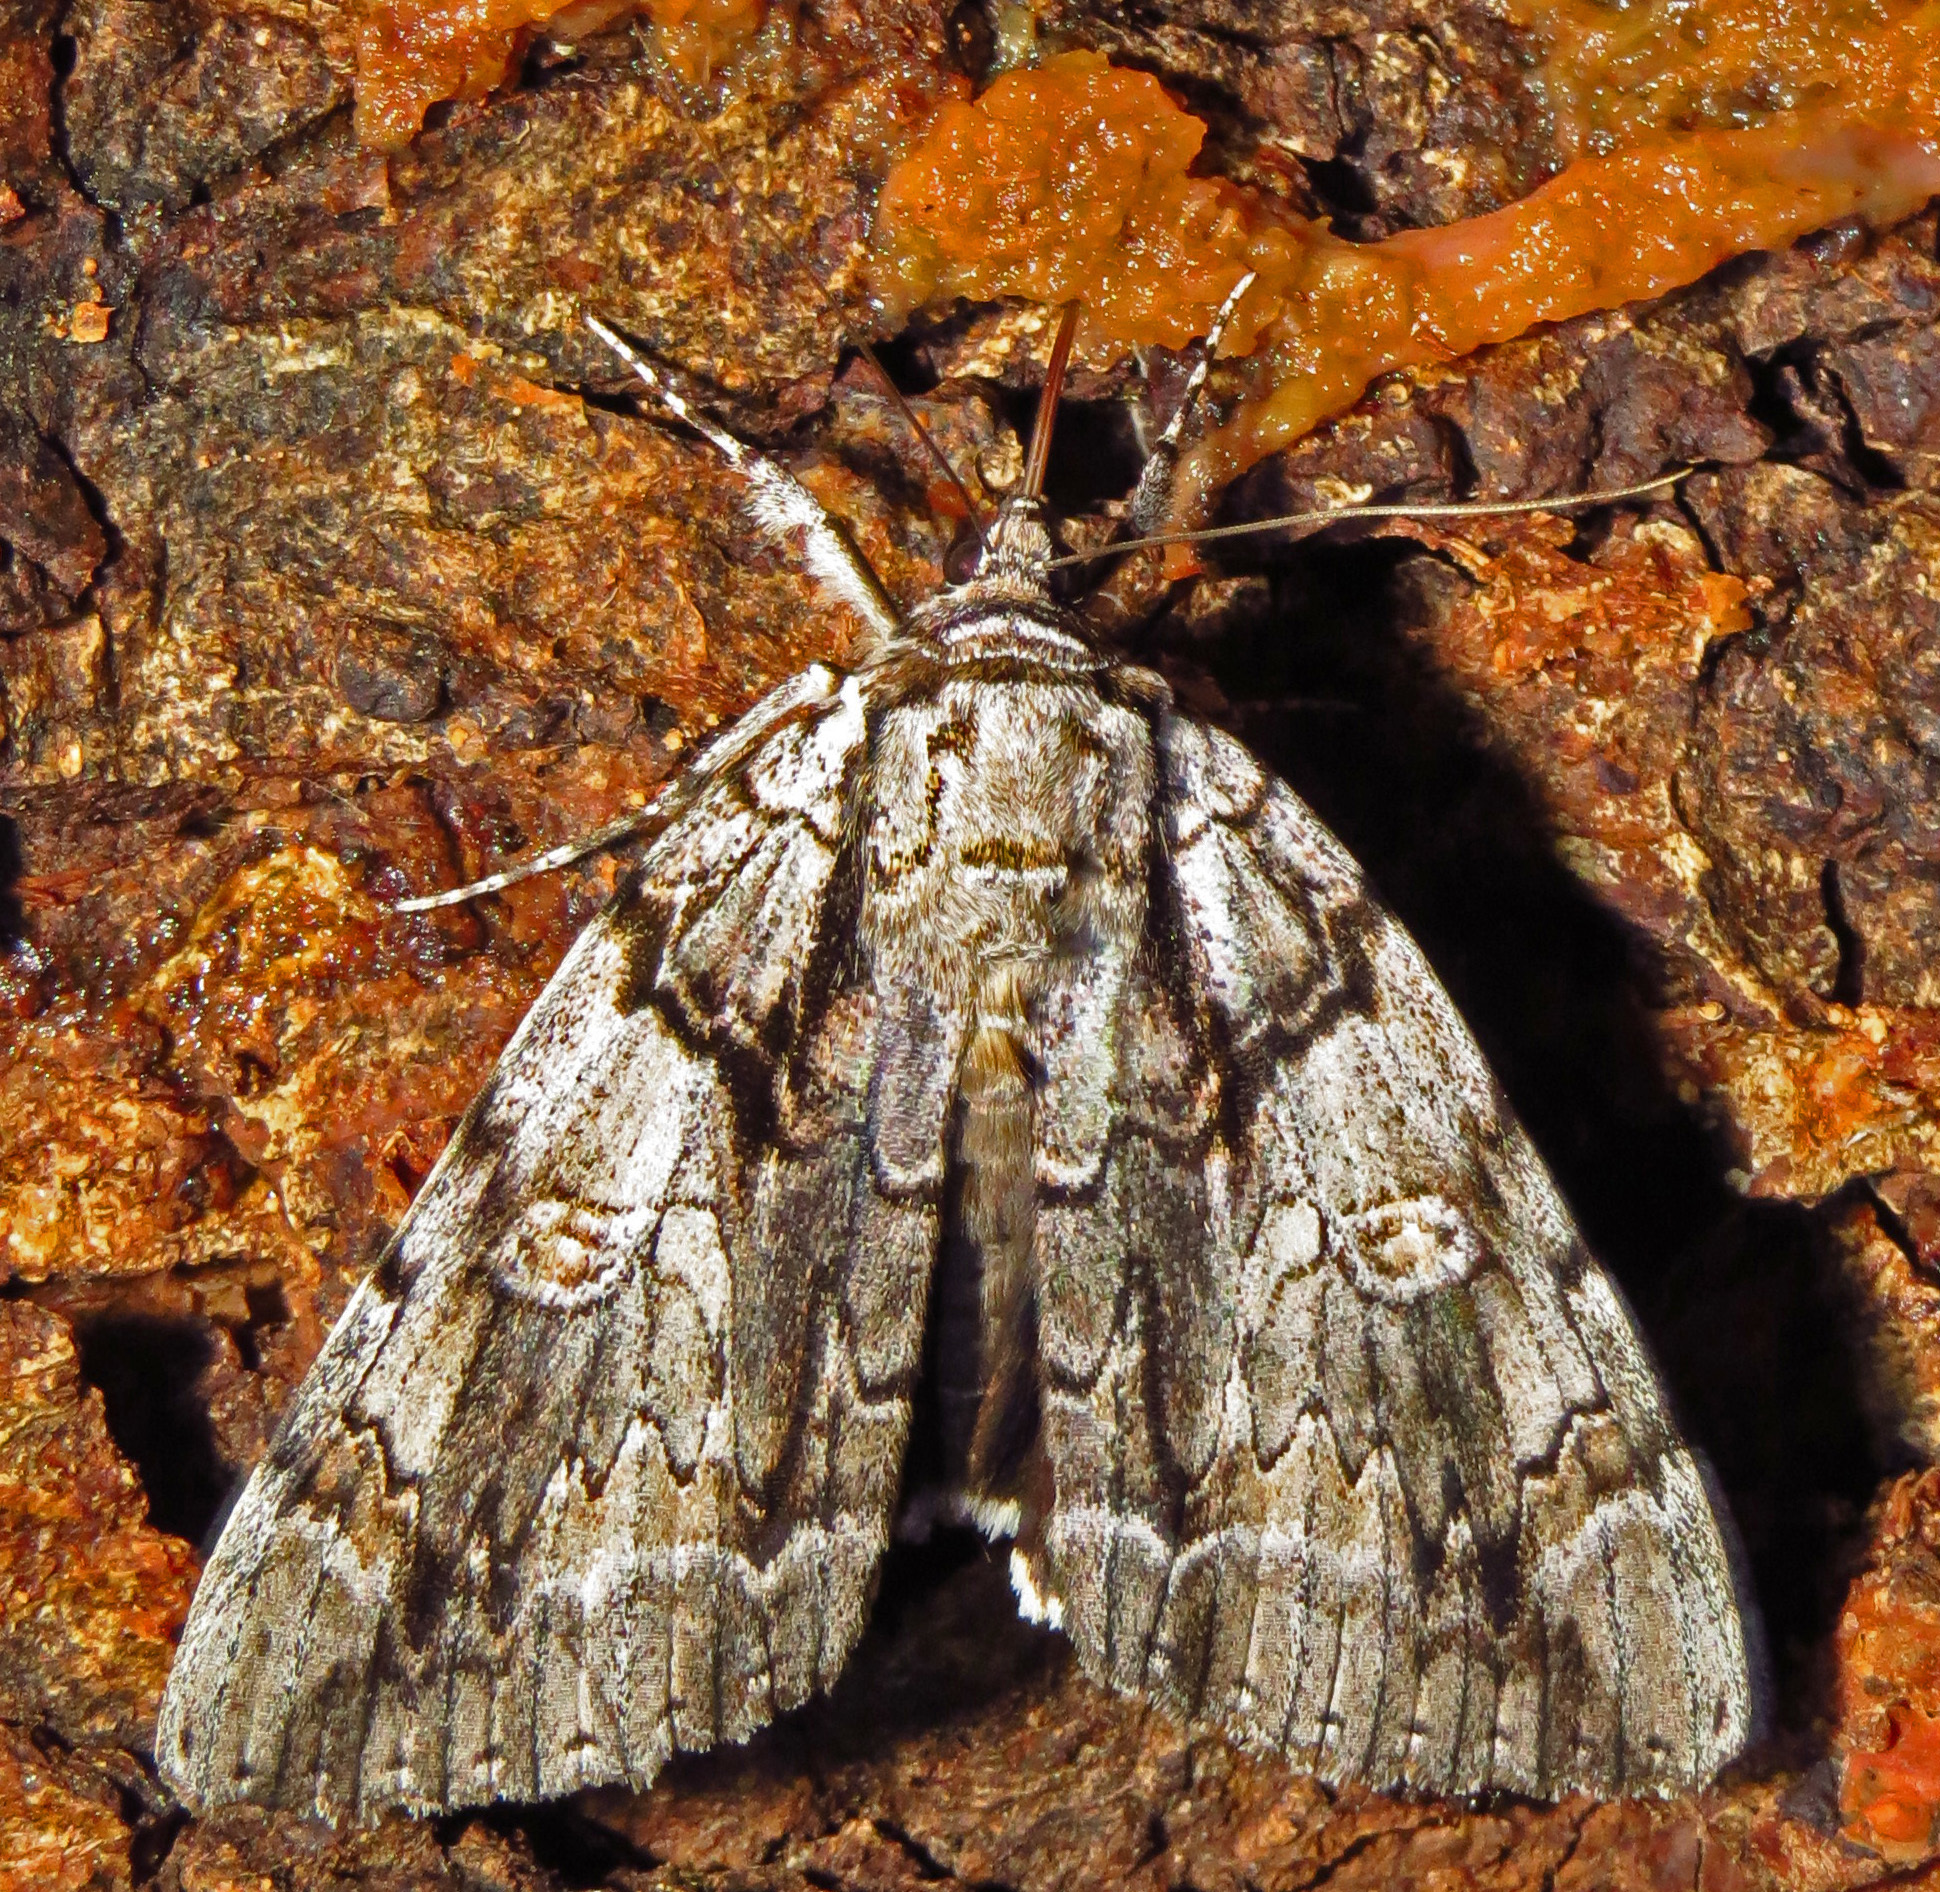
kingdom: Animalia
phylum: Arthropoda
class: Insecta
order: Lepidoptera
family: Erebidae
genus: Catocala
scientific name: Catocala vidua
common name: The widow
